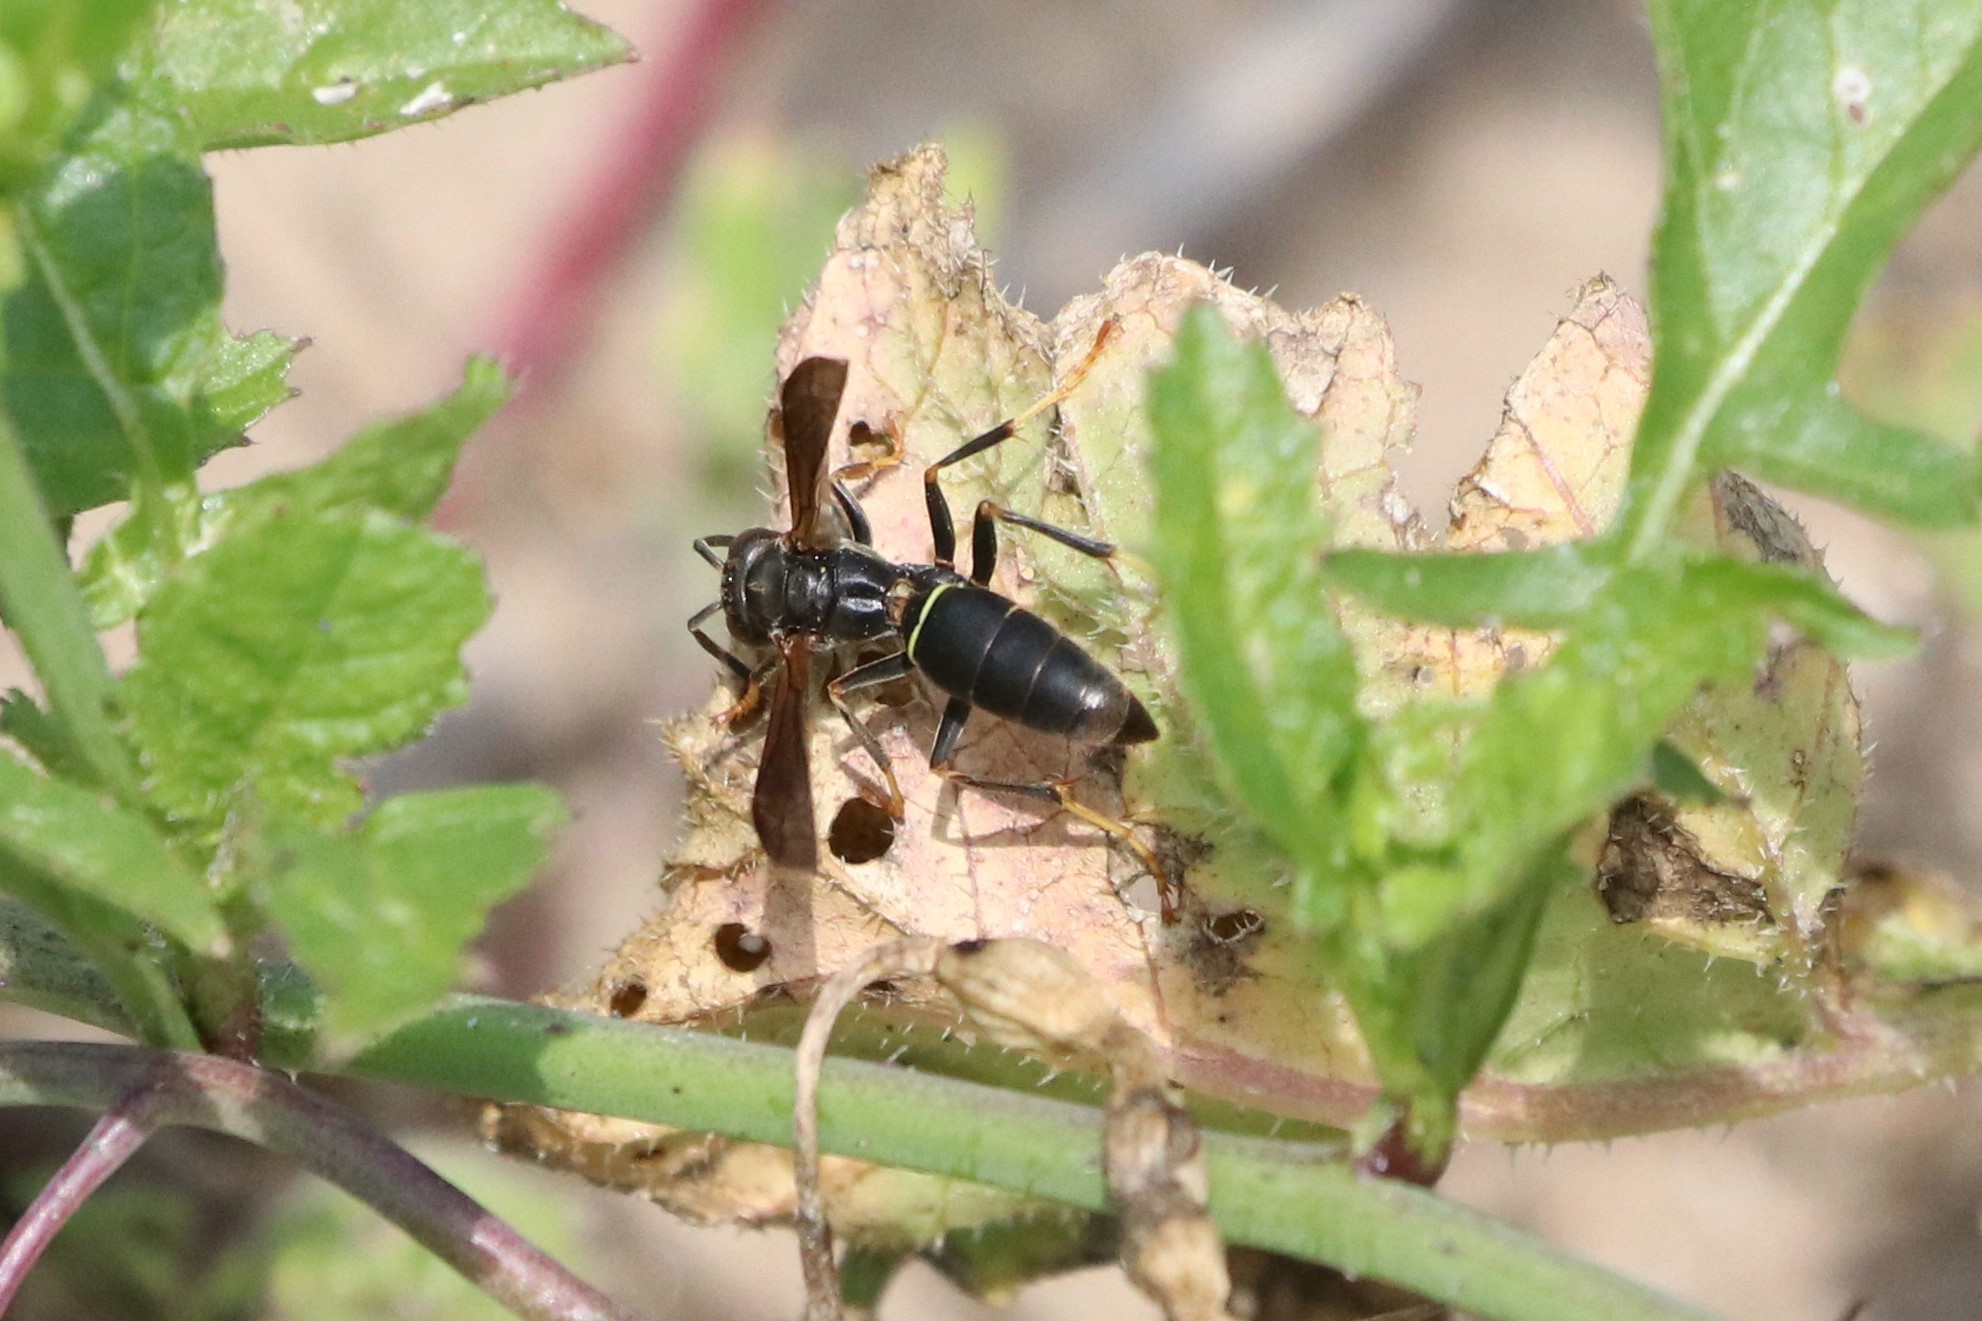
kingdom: Animalia
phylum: Arthropoda
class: Insecta
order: Hymenoptera
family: Eumenidae
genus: Polistes
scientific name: Polistes fuscatus
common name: Dark paper wasp
